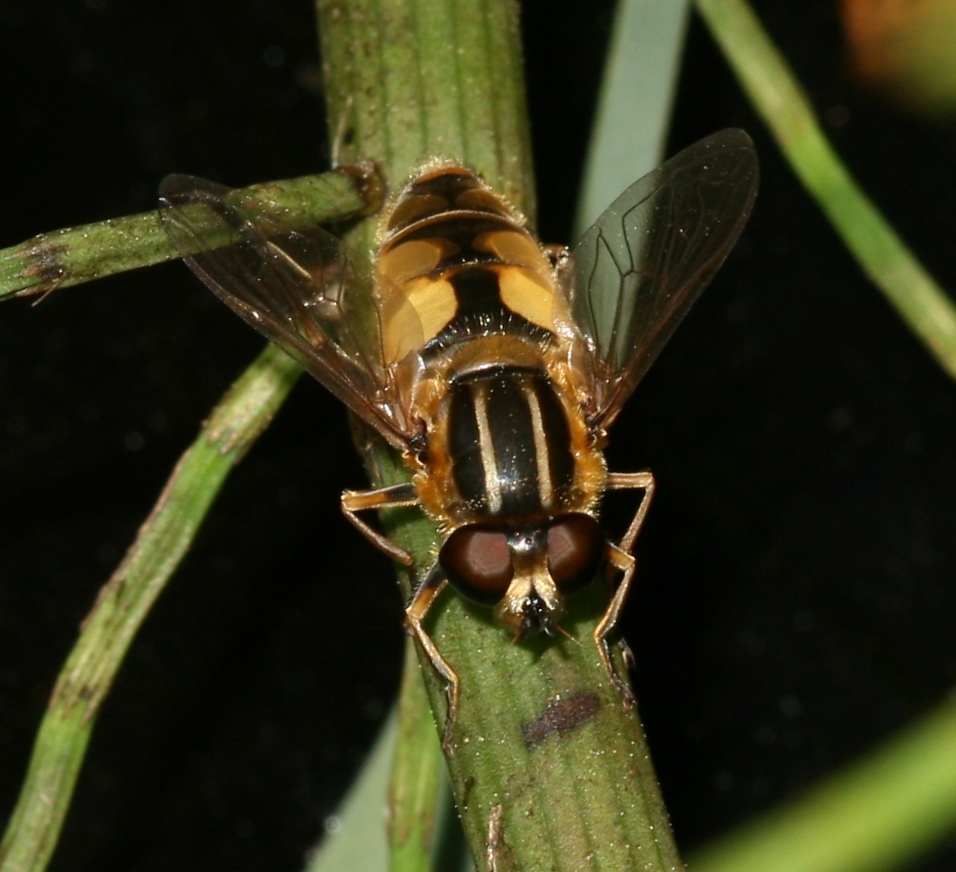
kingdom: Animalia
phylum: Arthropoda
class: Insecta
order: Diptera
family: Syrphidae
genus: Helophilus
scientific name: Helophilus hybridus
